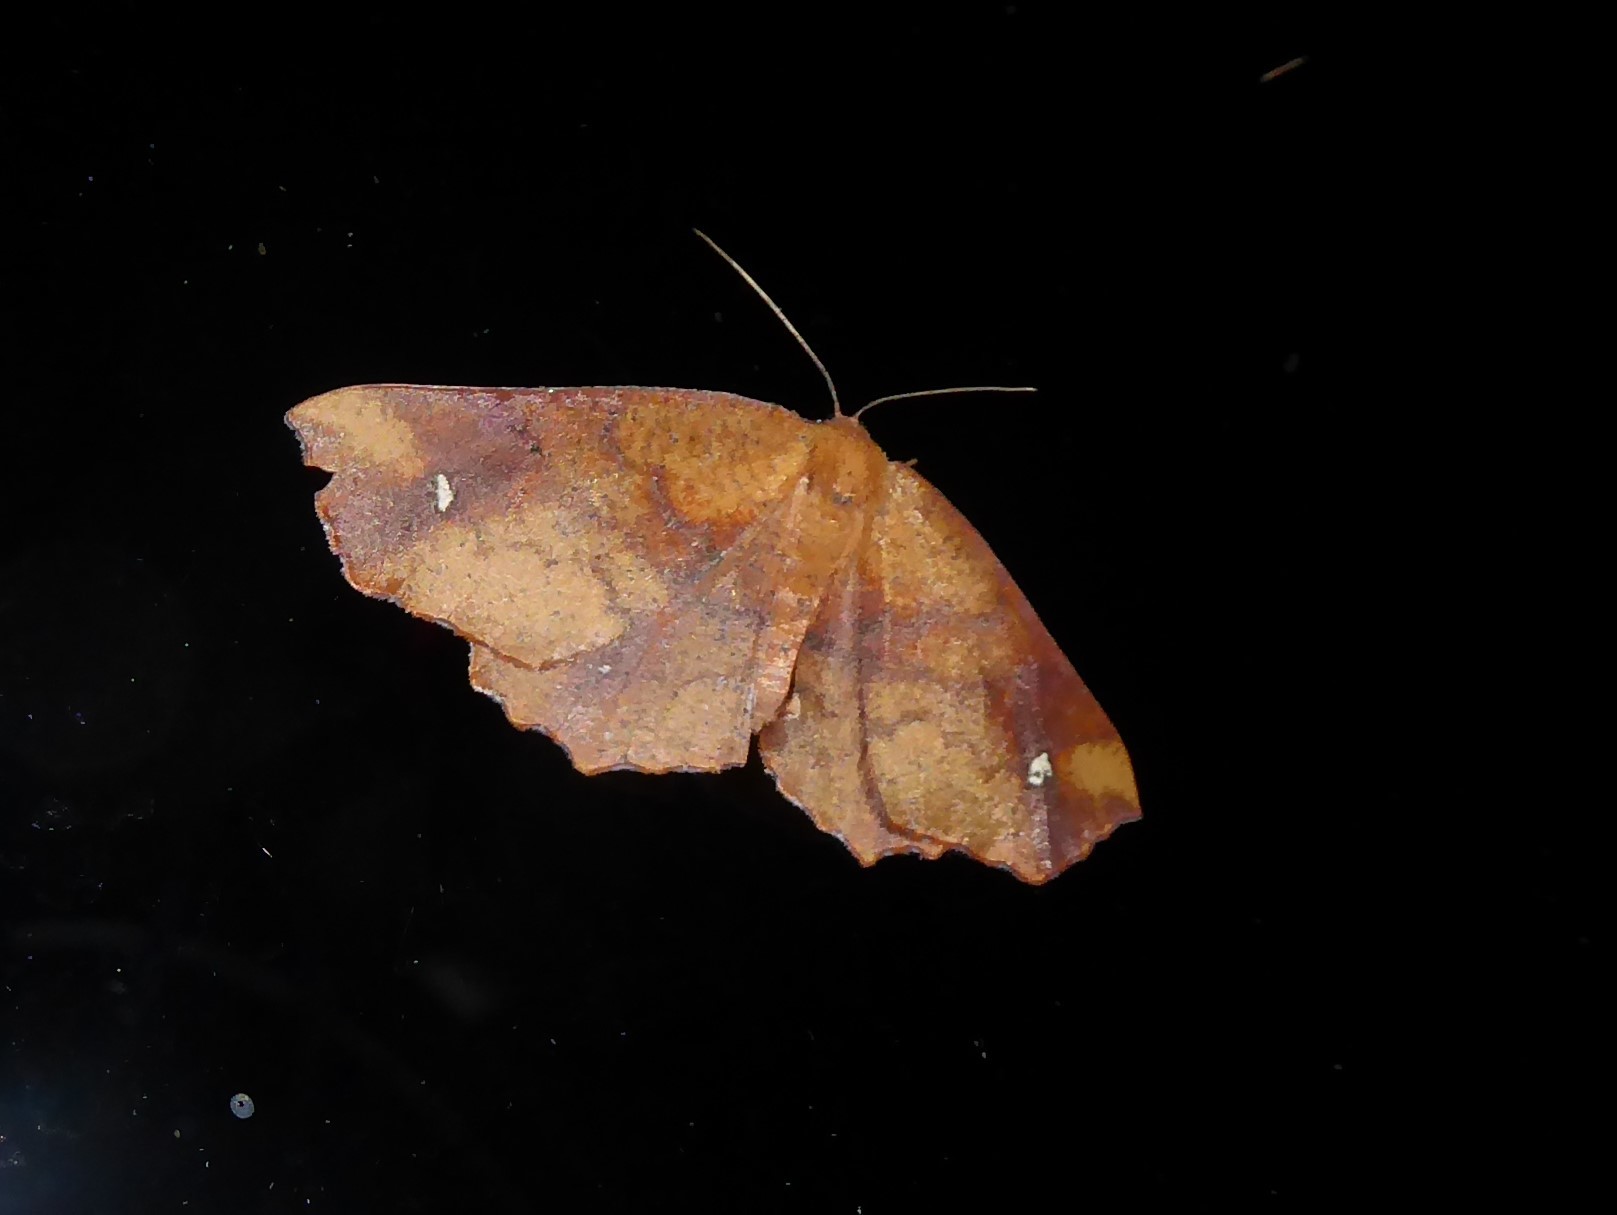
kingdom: Animalia
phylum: Arthropoda
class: Insecta
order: Lepidoptera
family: Geometridae
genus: Xyridacma
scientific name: Xyridacma ustaria
